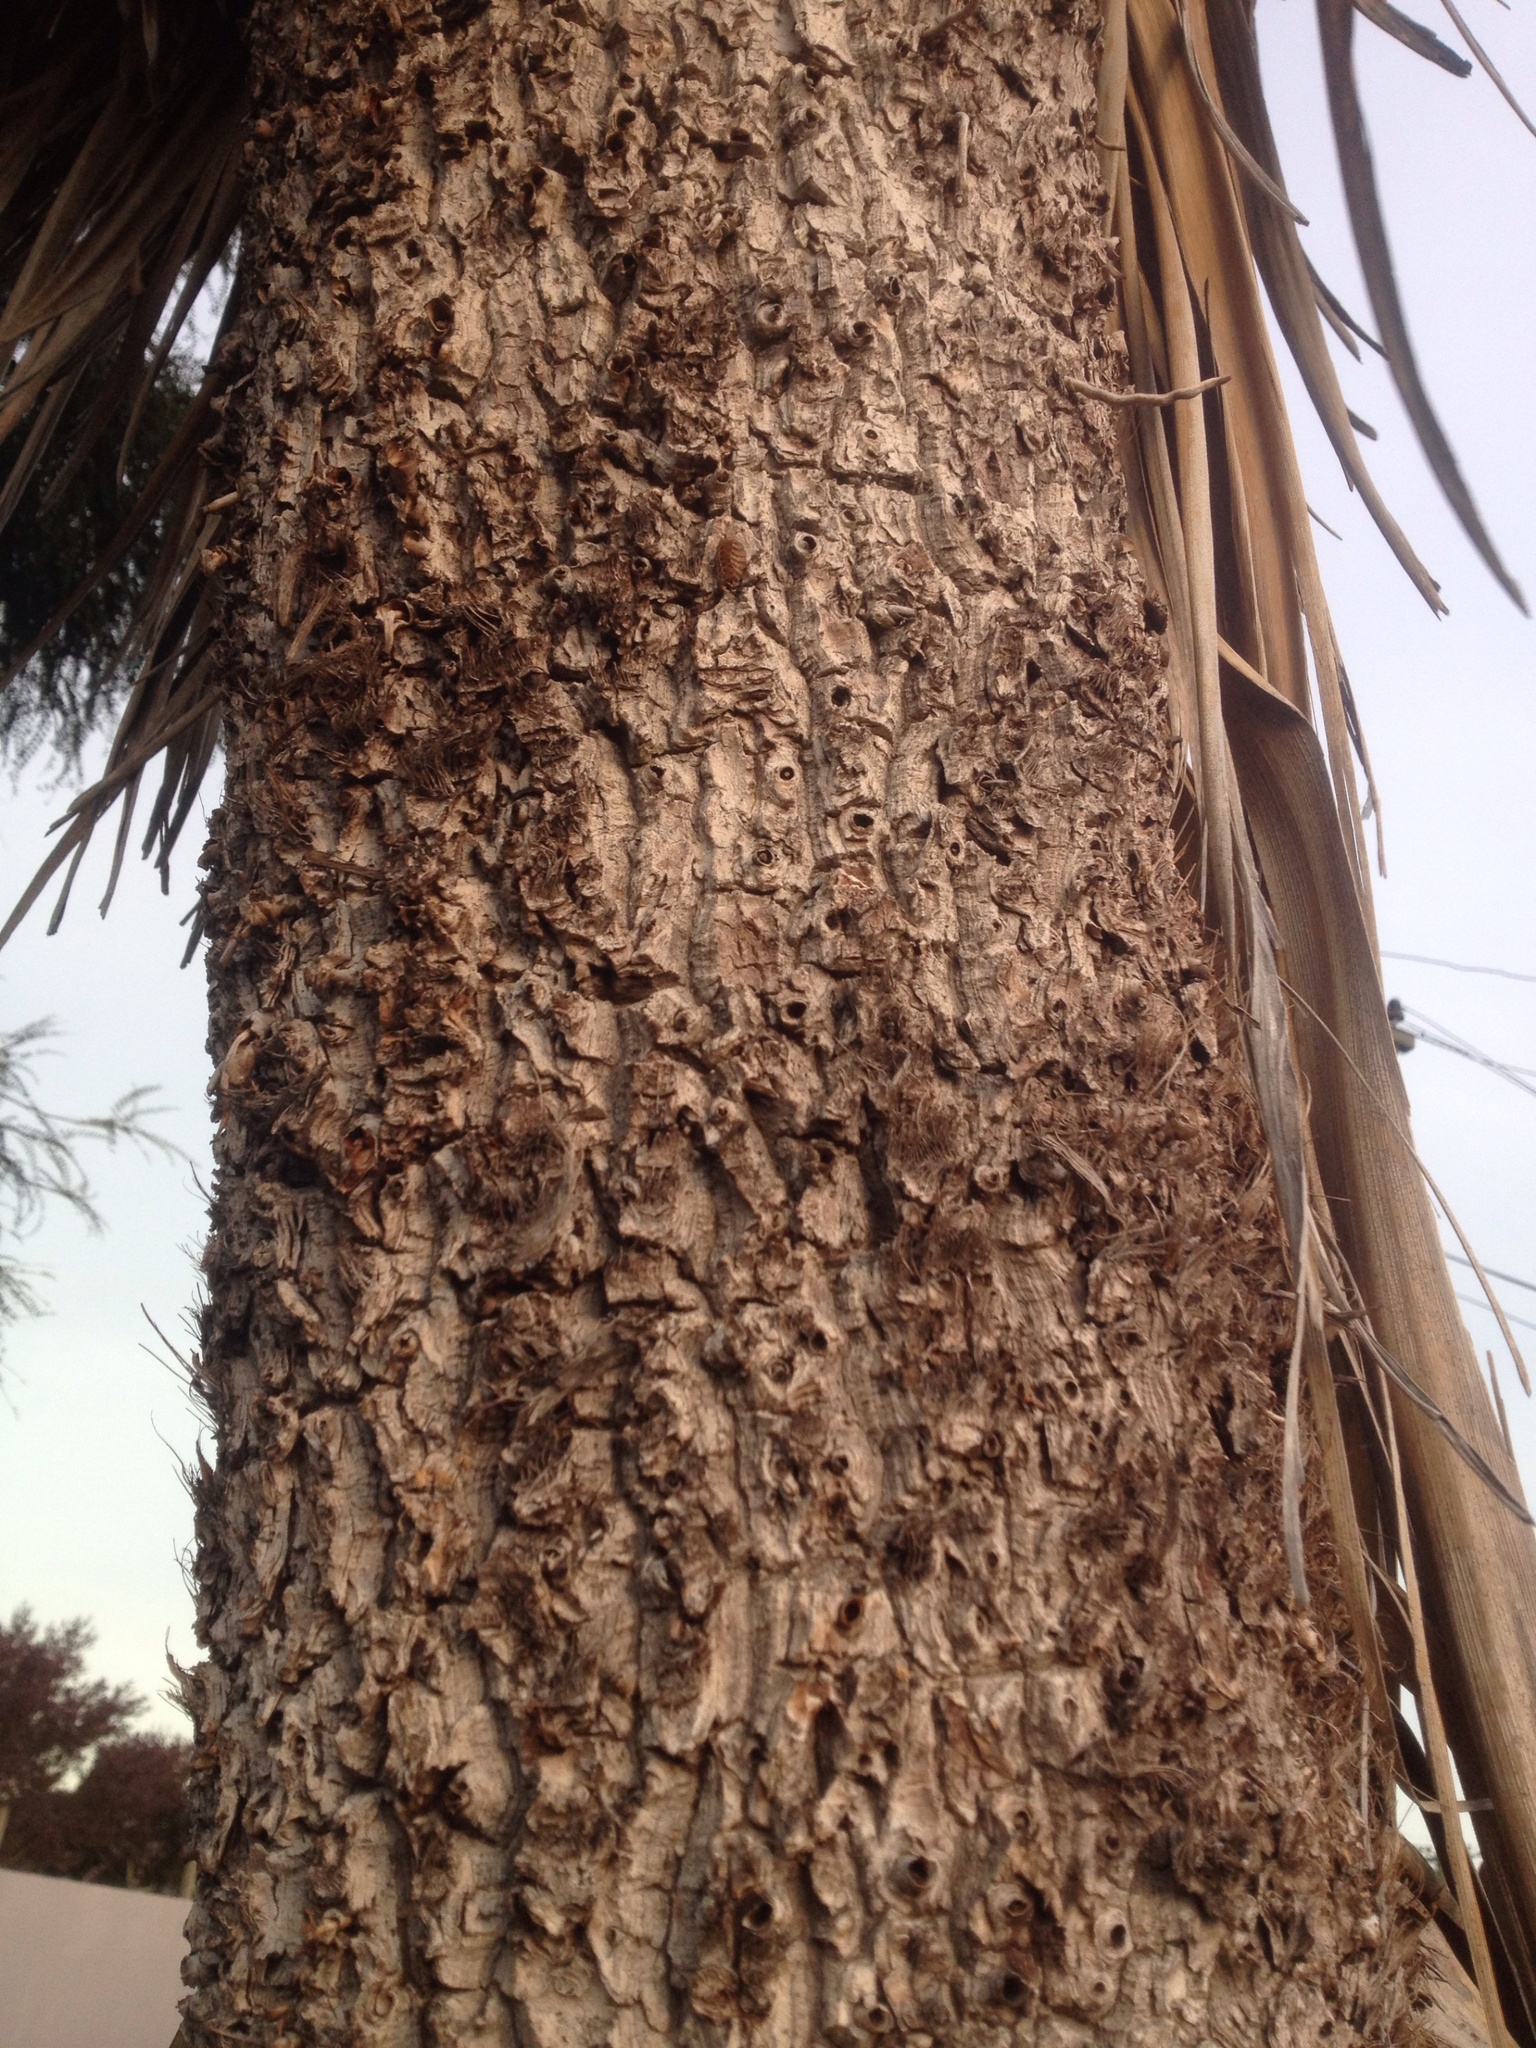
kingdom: Animalia
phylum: Arthropoda
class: Insecta
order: Mantodea
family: Mantidae
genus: Orthodera
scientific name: Orthodera novaezealandiae
